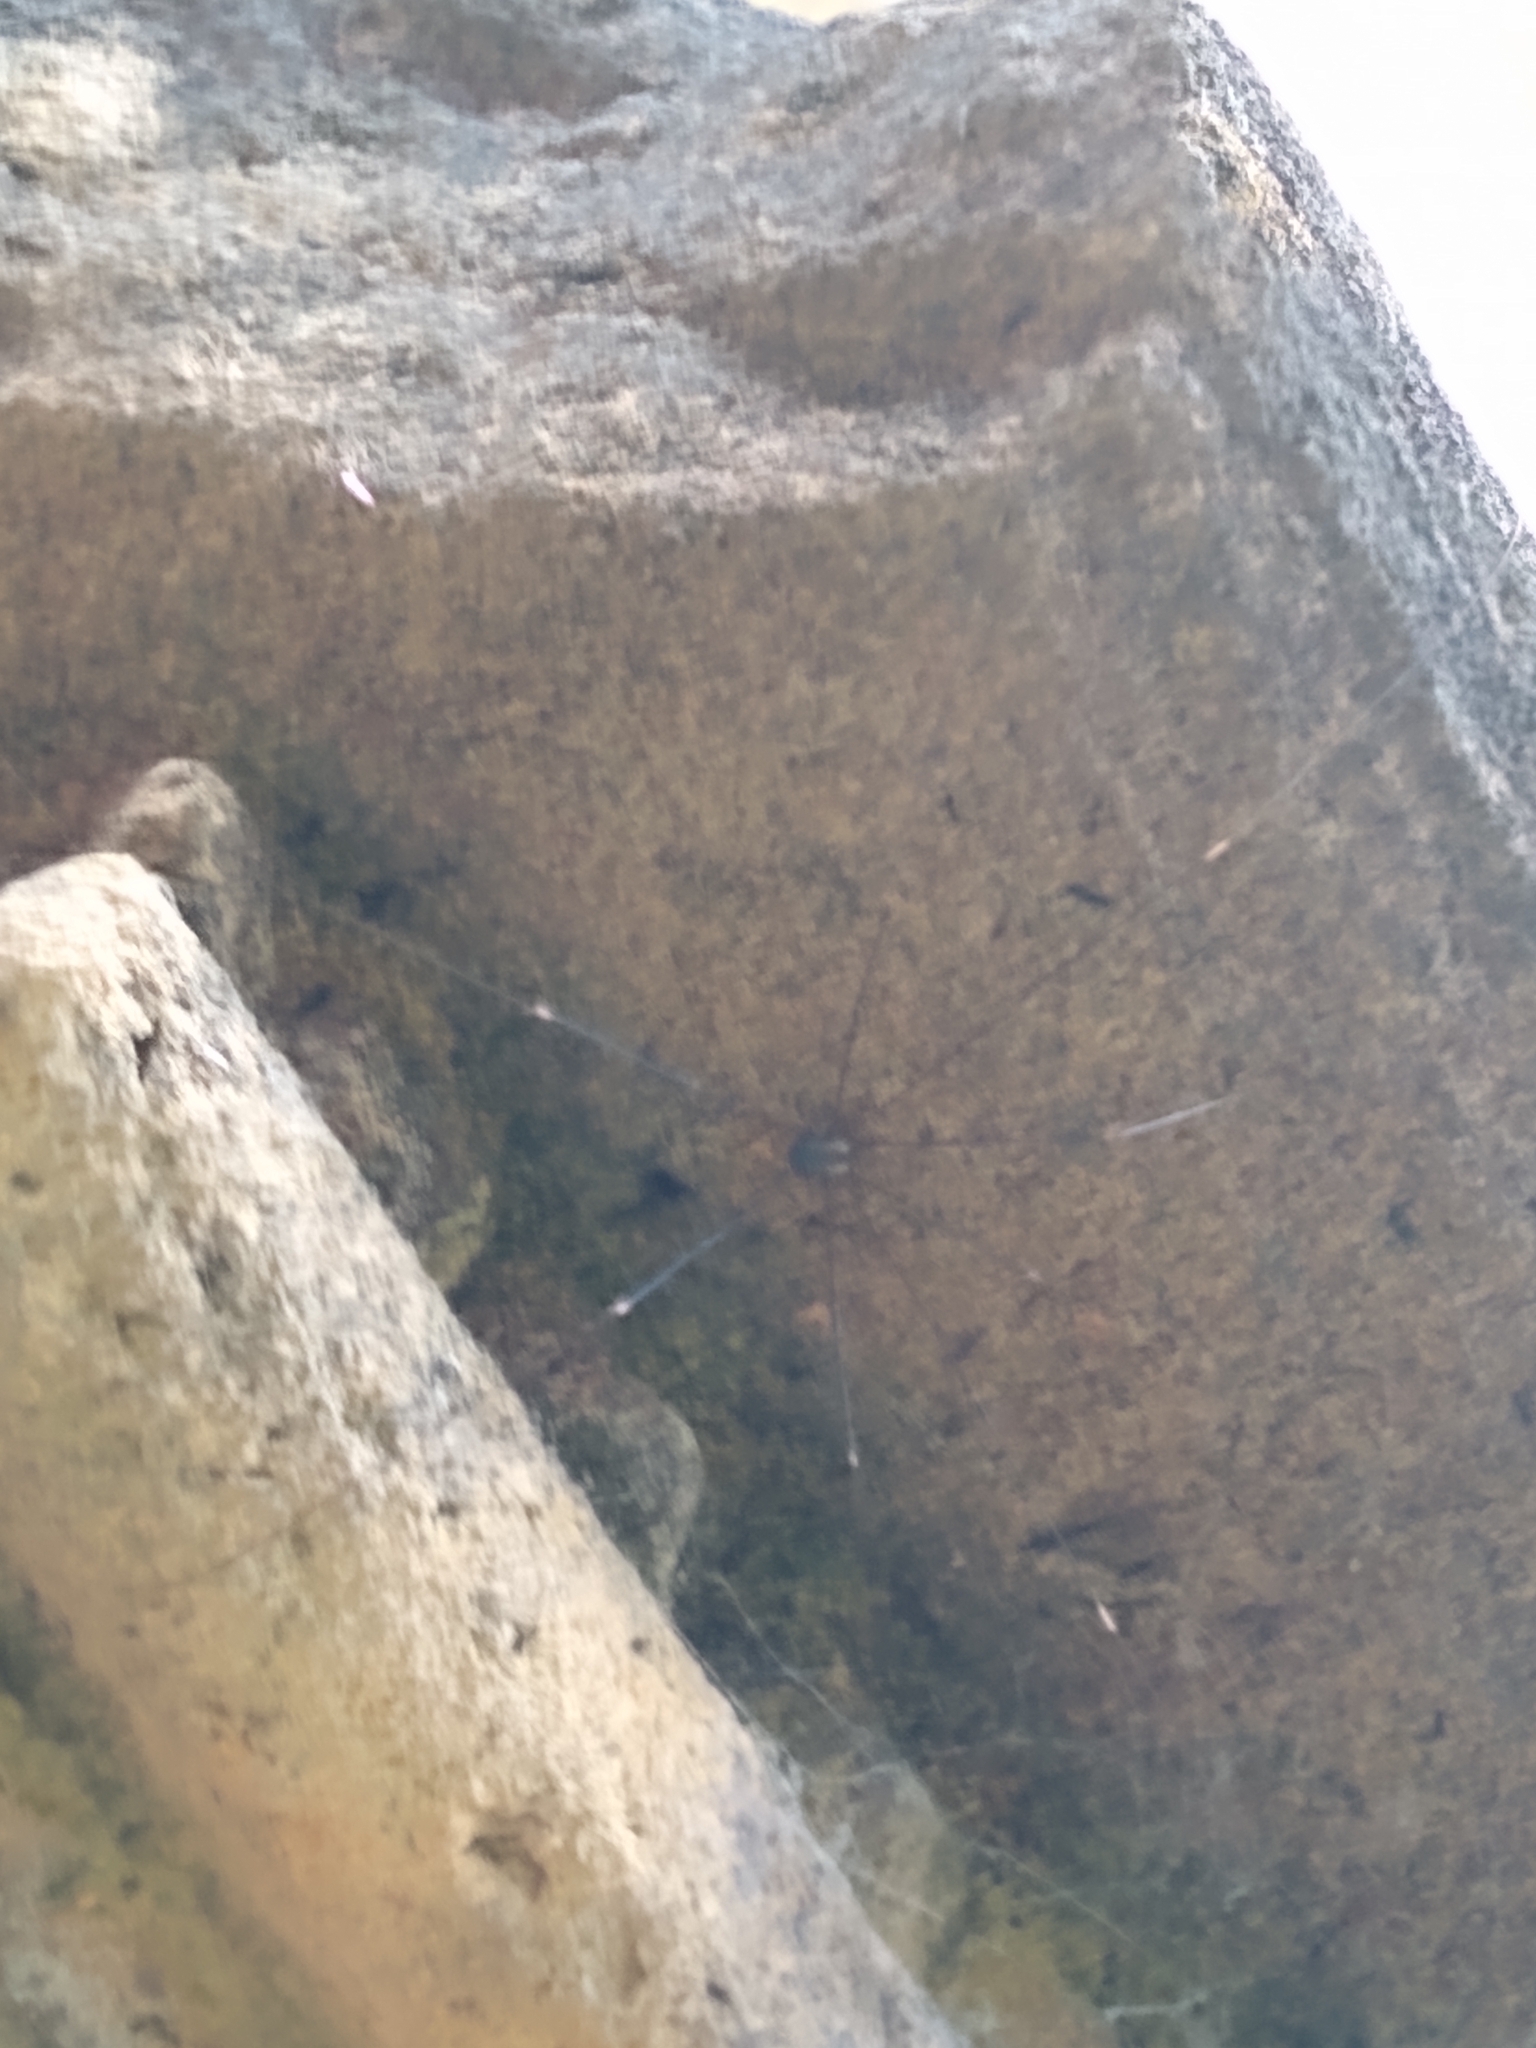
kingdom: Animalia
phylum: Arthropoda
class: Arachnida
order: Opiliones
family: Sclerosomatidae
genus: Leiobunum
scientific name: Leiobunum
